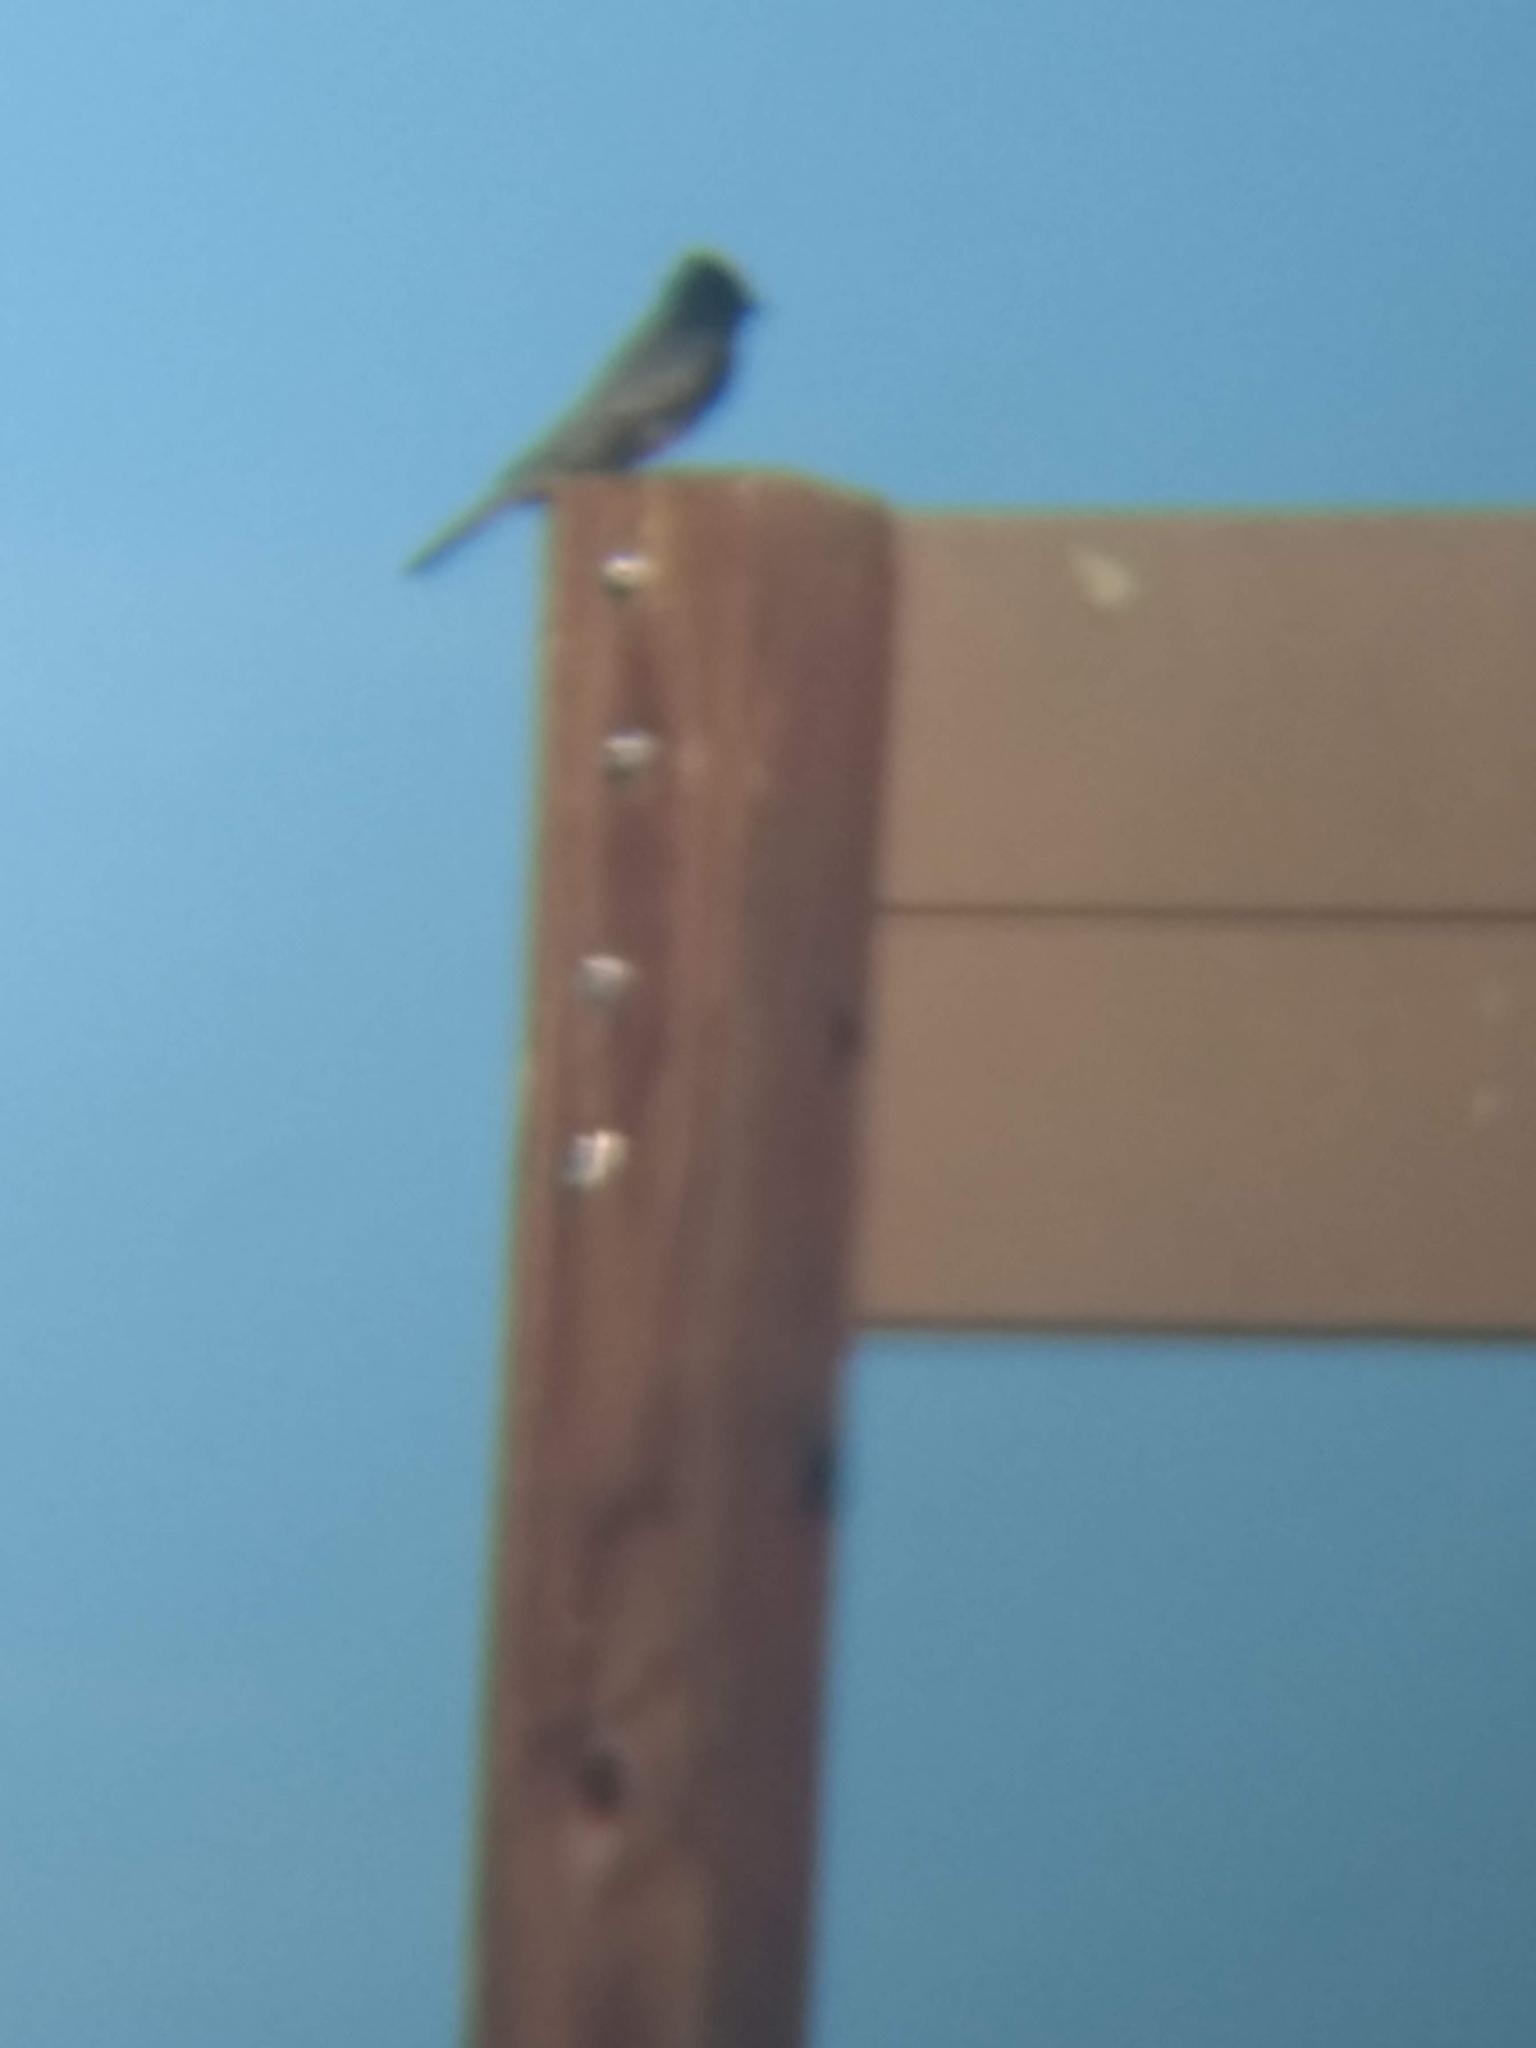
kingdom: Animalia
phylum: Chordata
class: Aves
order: Passeriformes
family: Tyrannidae
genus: Sayornis
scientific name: Sayornis nigricans
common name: Black phoebe
